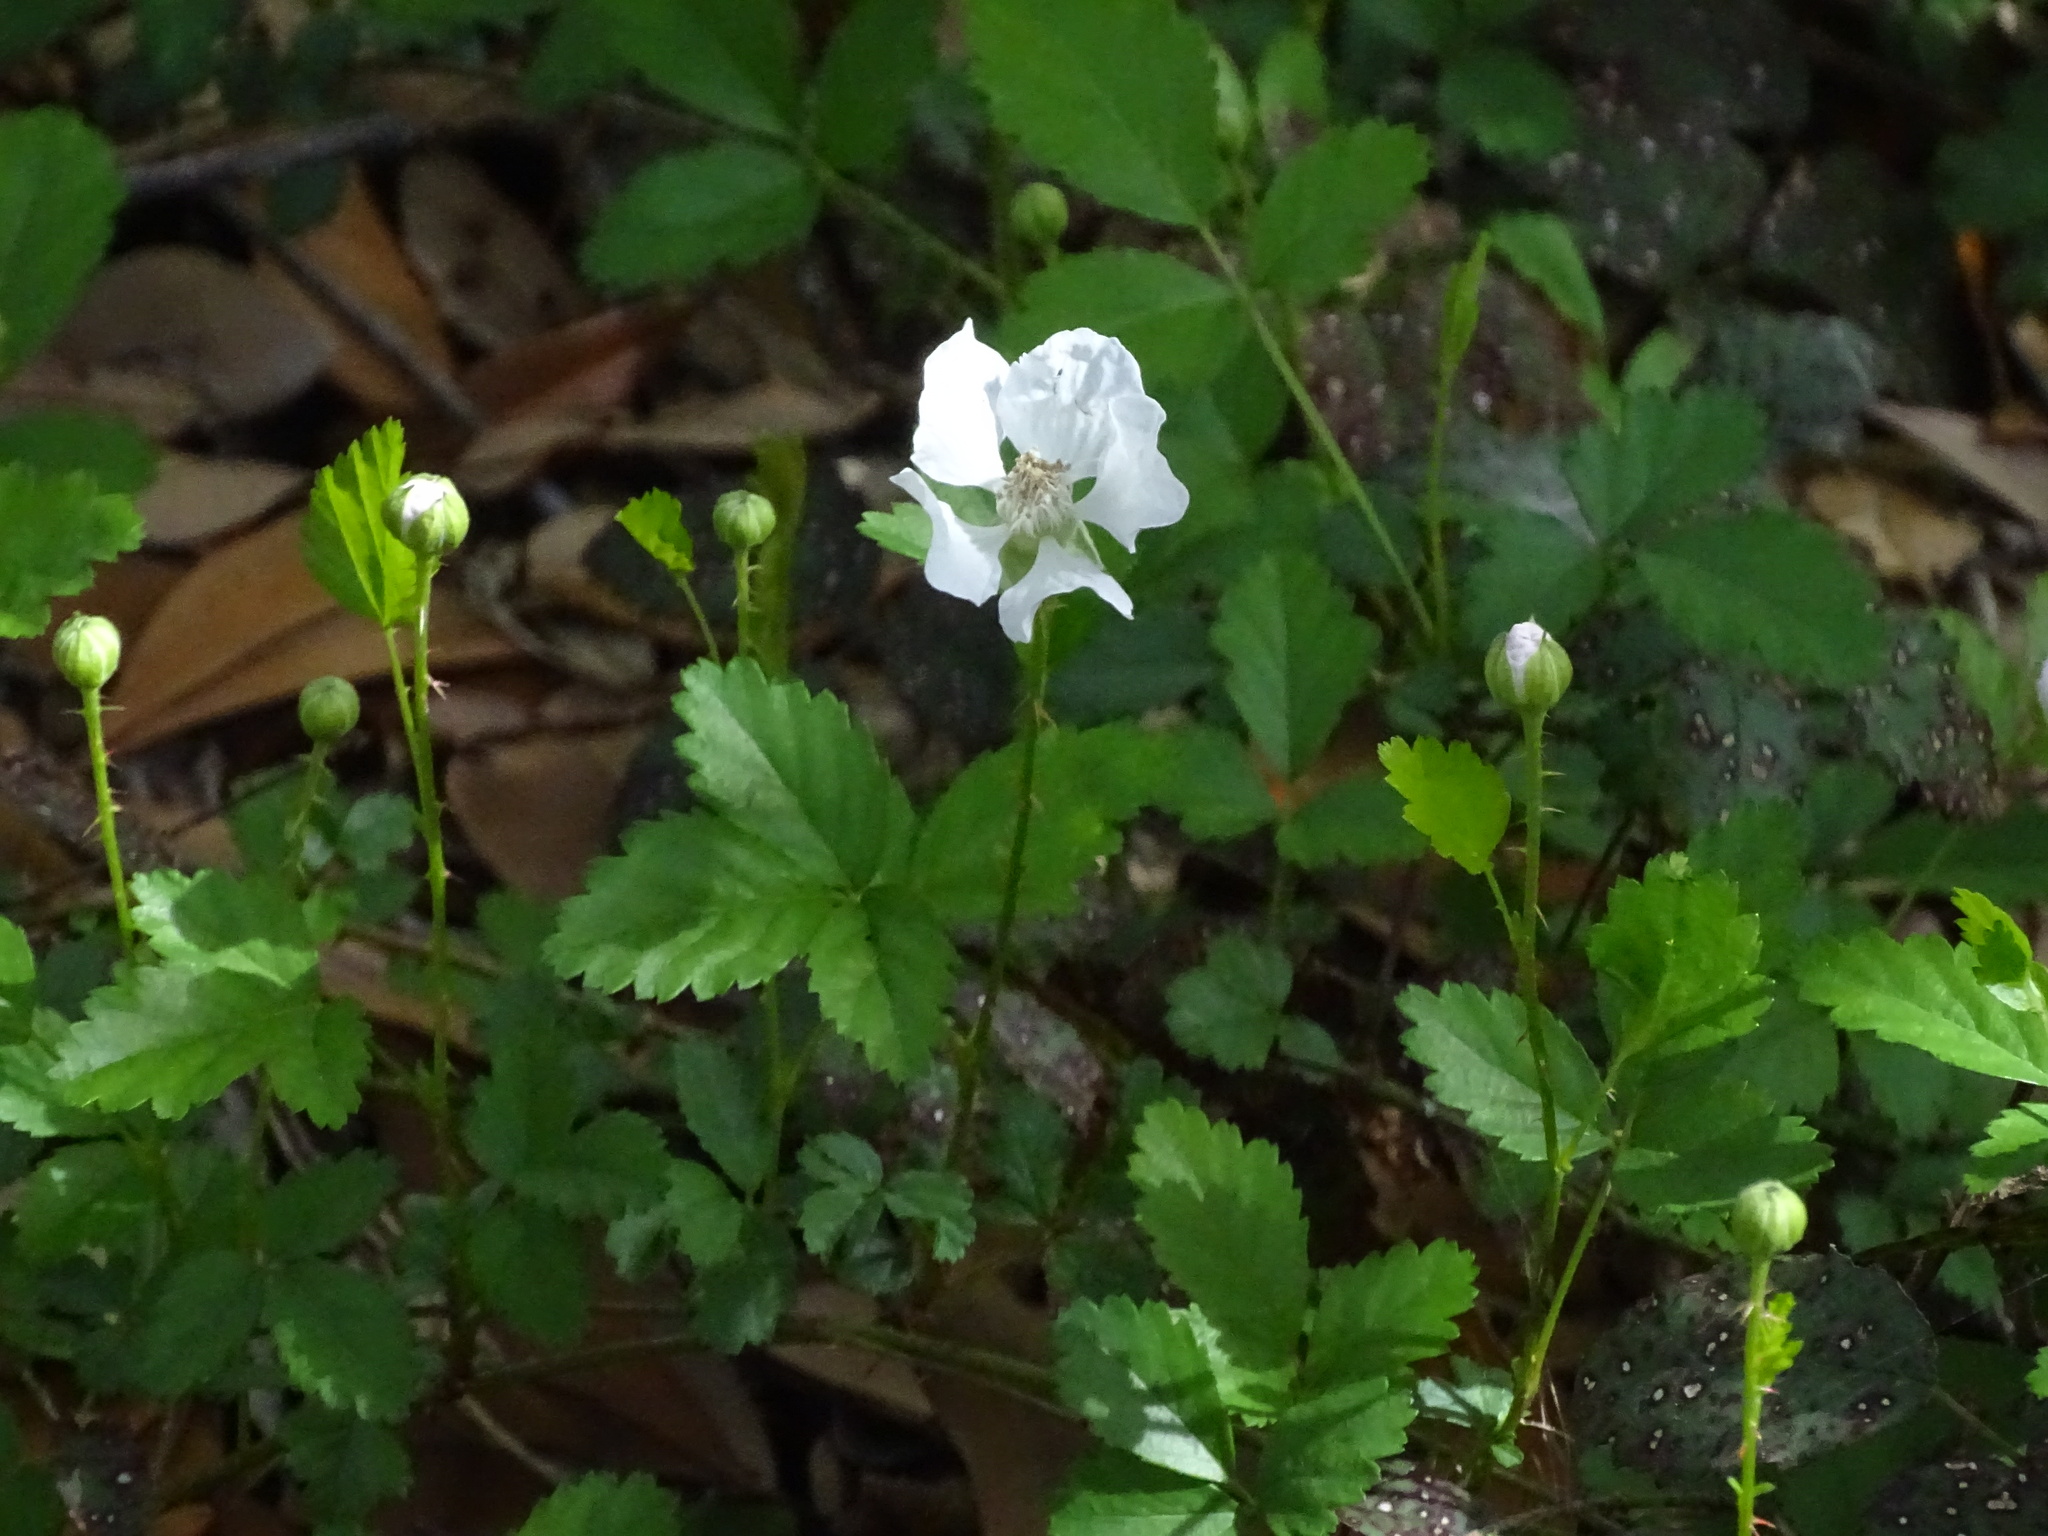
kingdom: Plantae
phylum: Tracheophyta
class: Magnoliopsida
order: Rosales
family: Rosaceae
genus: Rubus
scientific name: Rubus trivialis
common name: Southern dewberry
